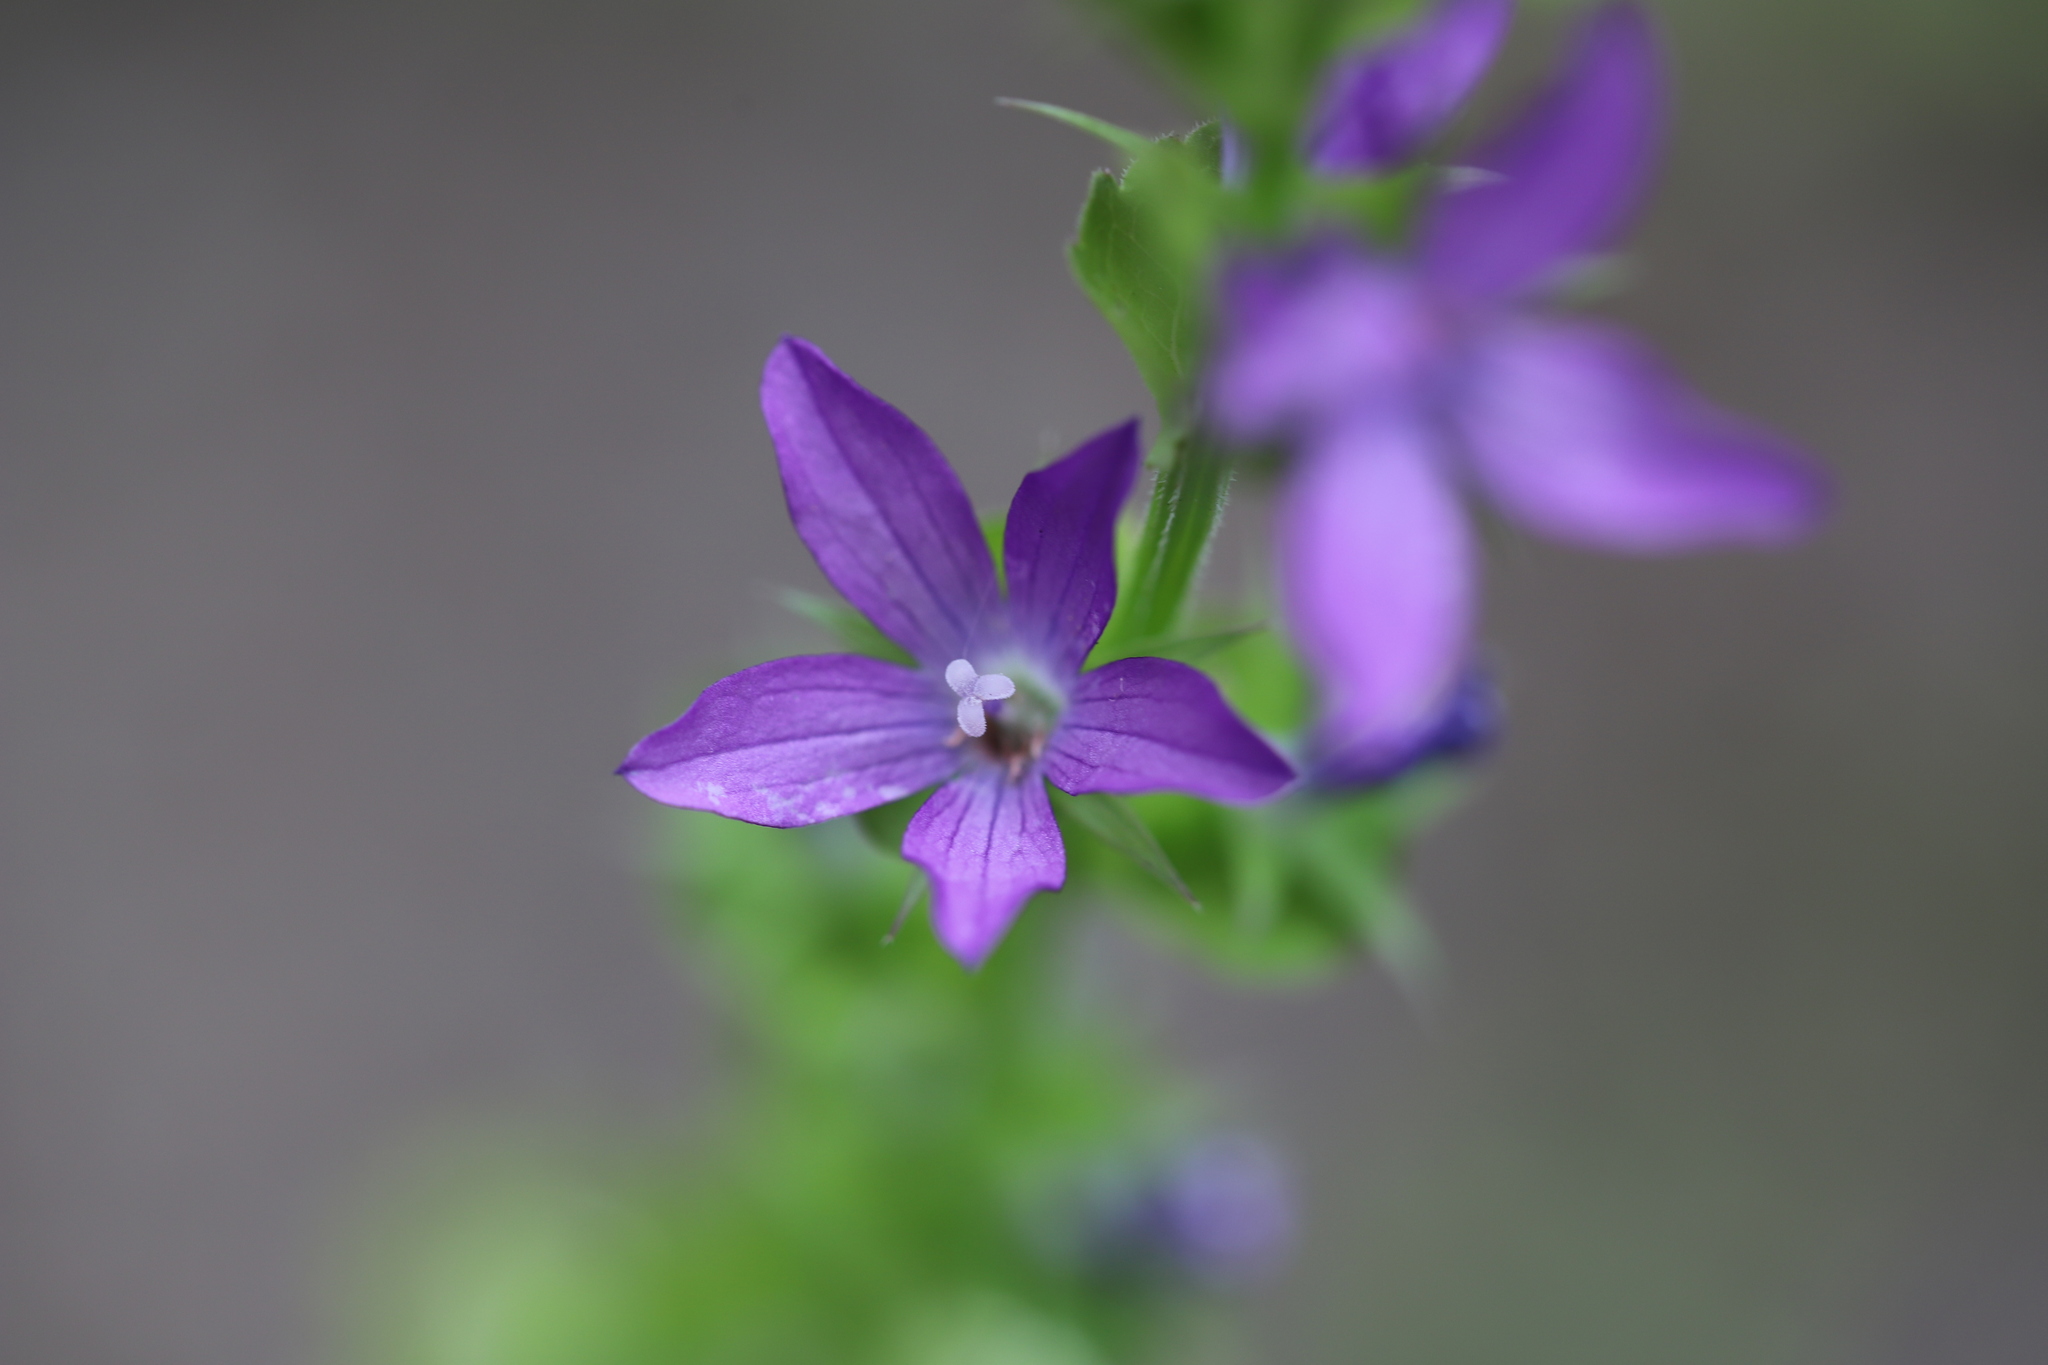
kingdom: Plantae
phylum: Tracheophyta
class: Magnoliopsida
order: Asterales
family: Campanulaceae
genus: Triodanis
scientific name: Triodanis perfoliata
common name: Clasping venus' looking-glass
